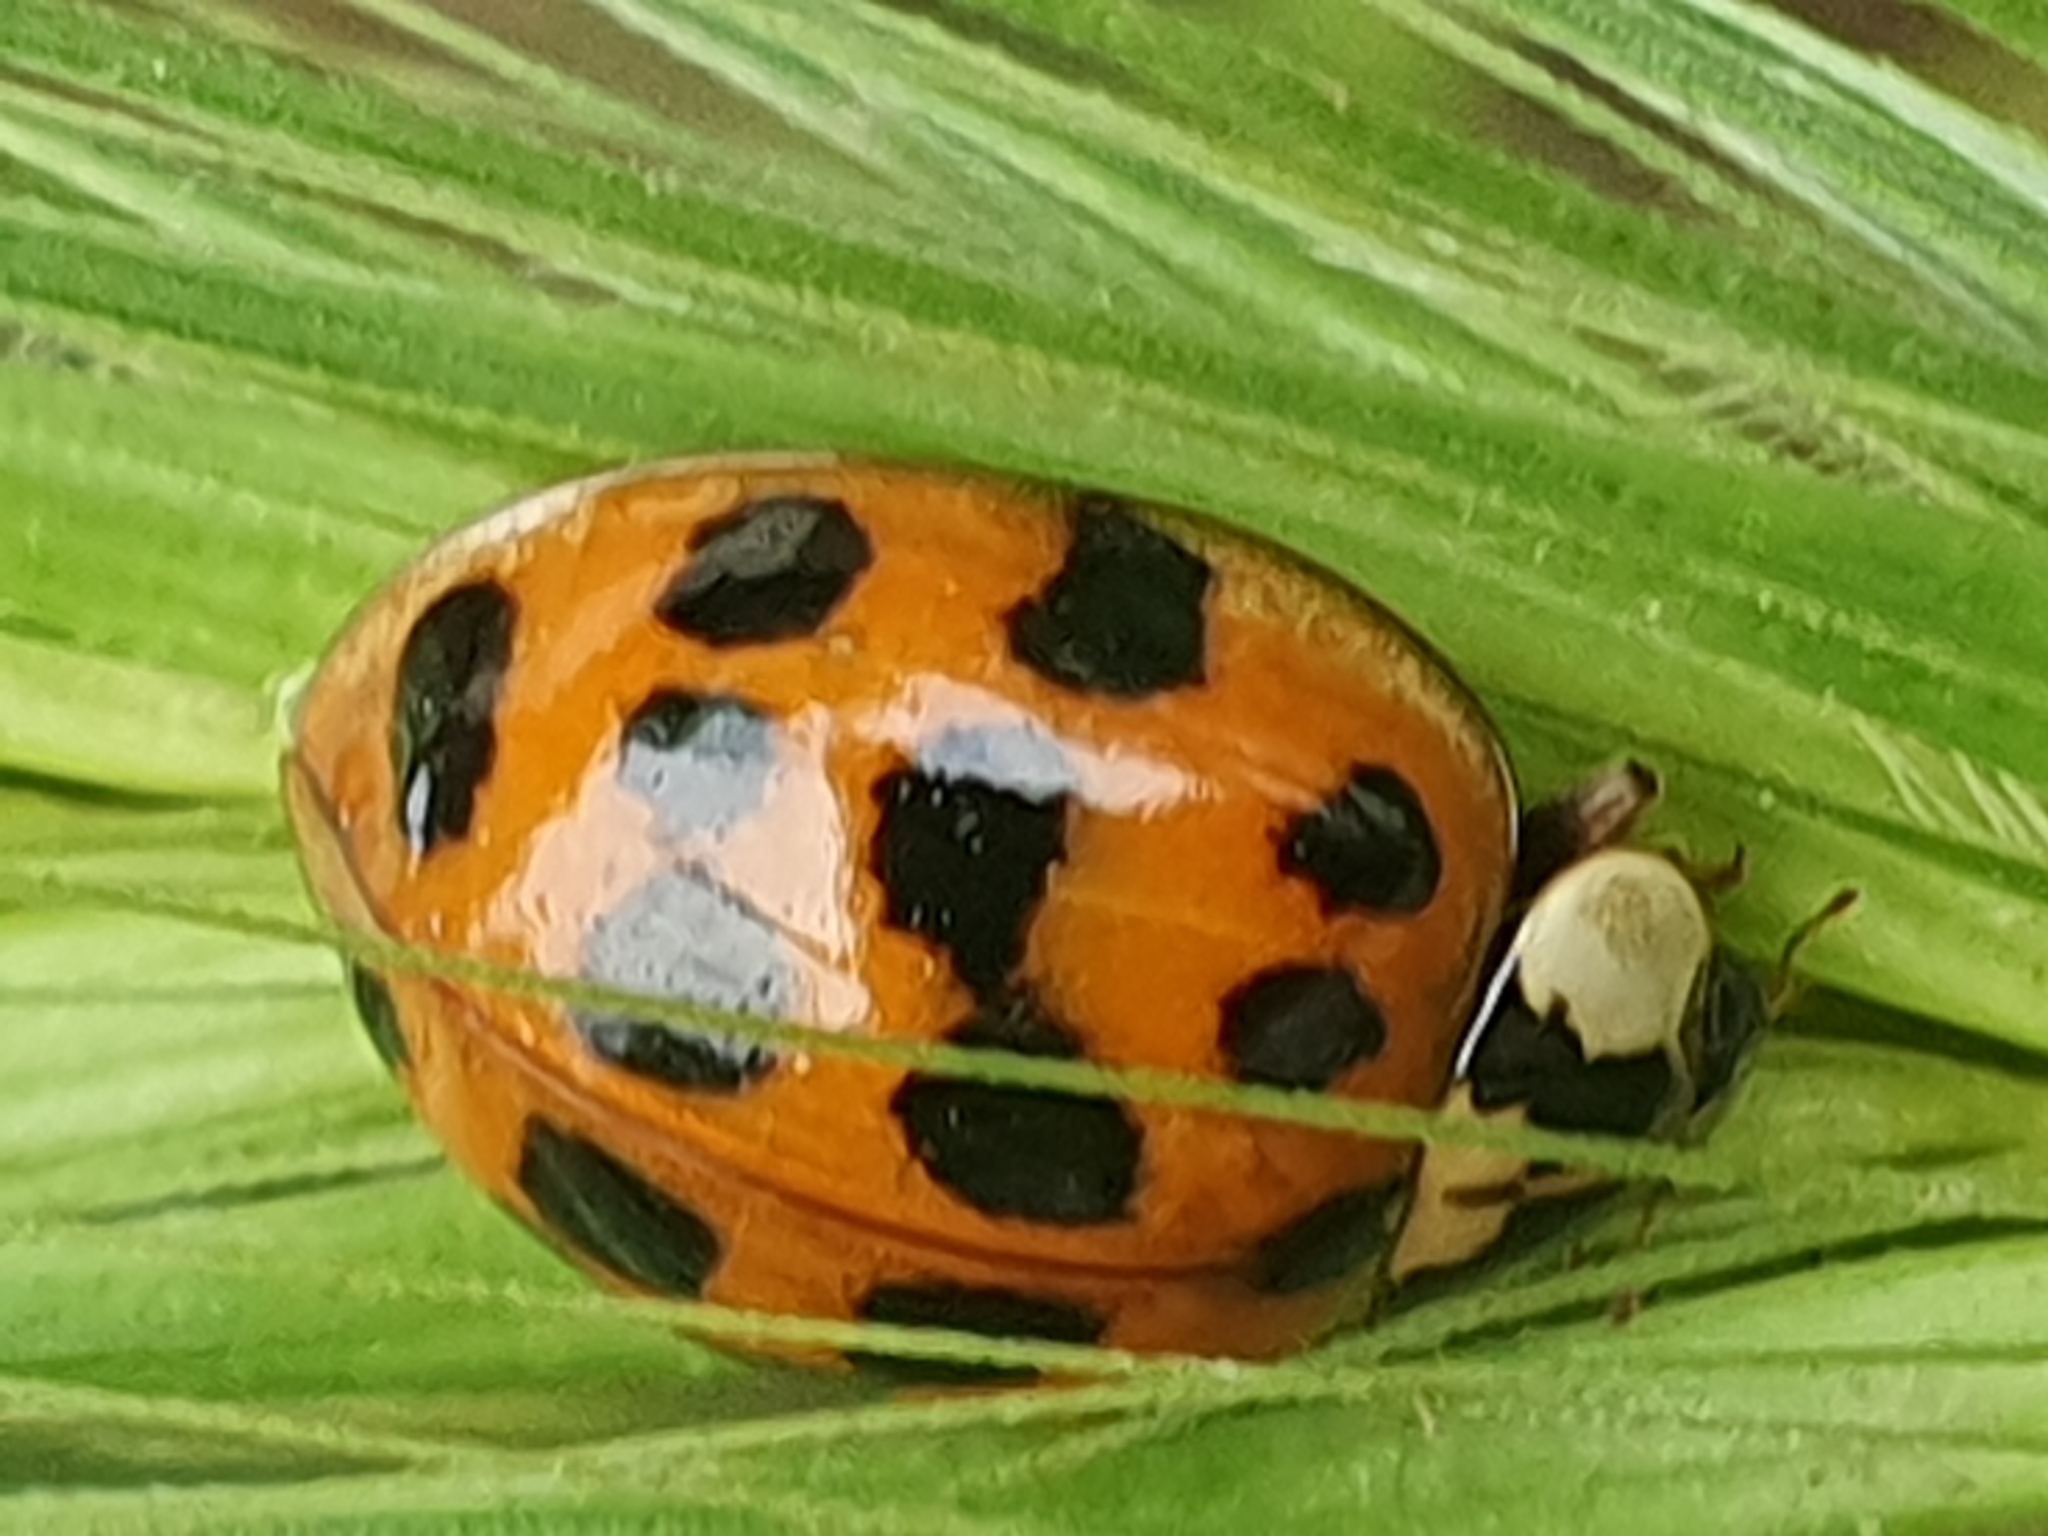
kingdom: Animalia
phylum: Arthropoda
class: Insecta
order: Coleoptera
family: Coccinellidae
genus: Harmonia
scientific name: Harmonia axyridis
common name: Harlequin ladybird
